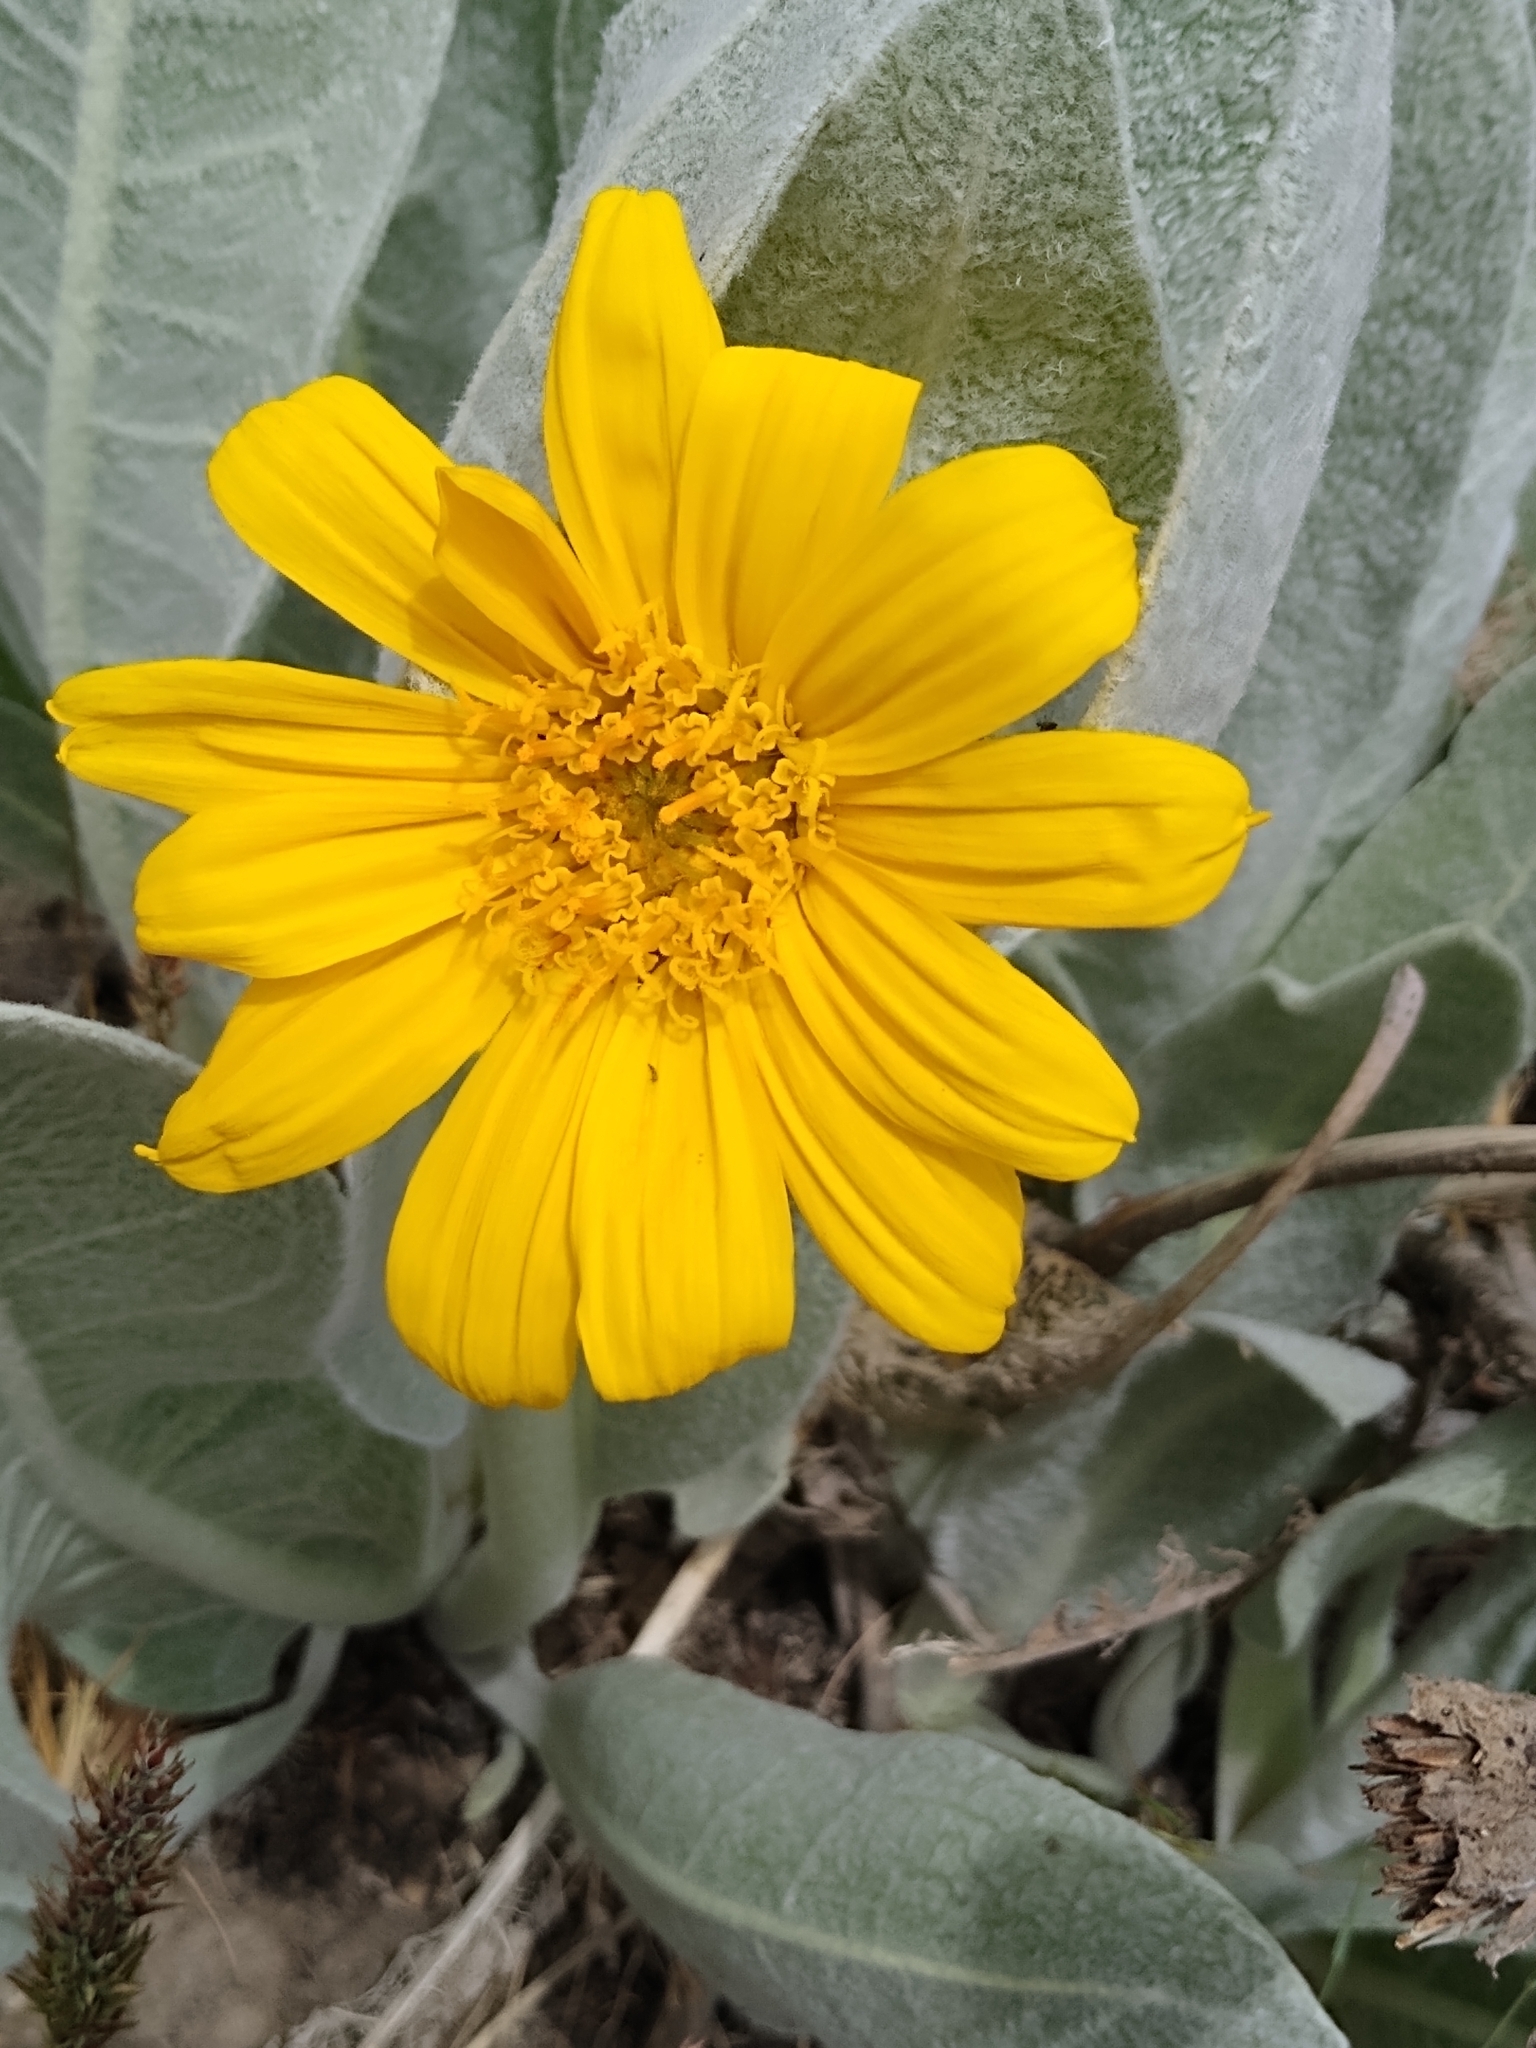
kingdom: Plantae
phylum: Tracheophyta
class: Magnoliopsida
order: Asterales
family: Asteraceae
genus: Wyethia
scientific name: Wyethia mollis
